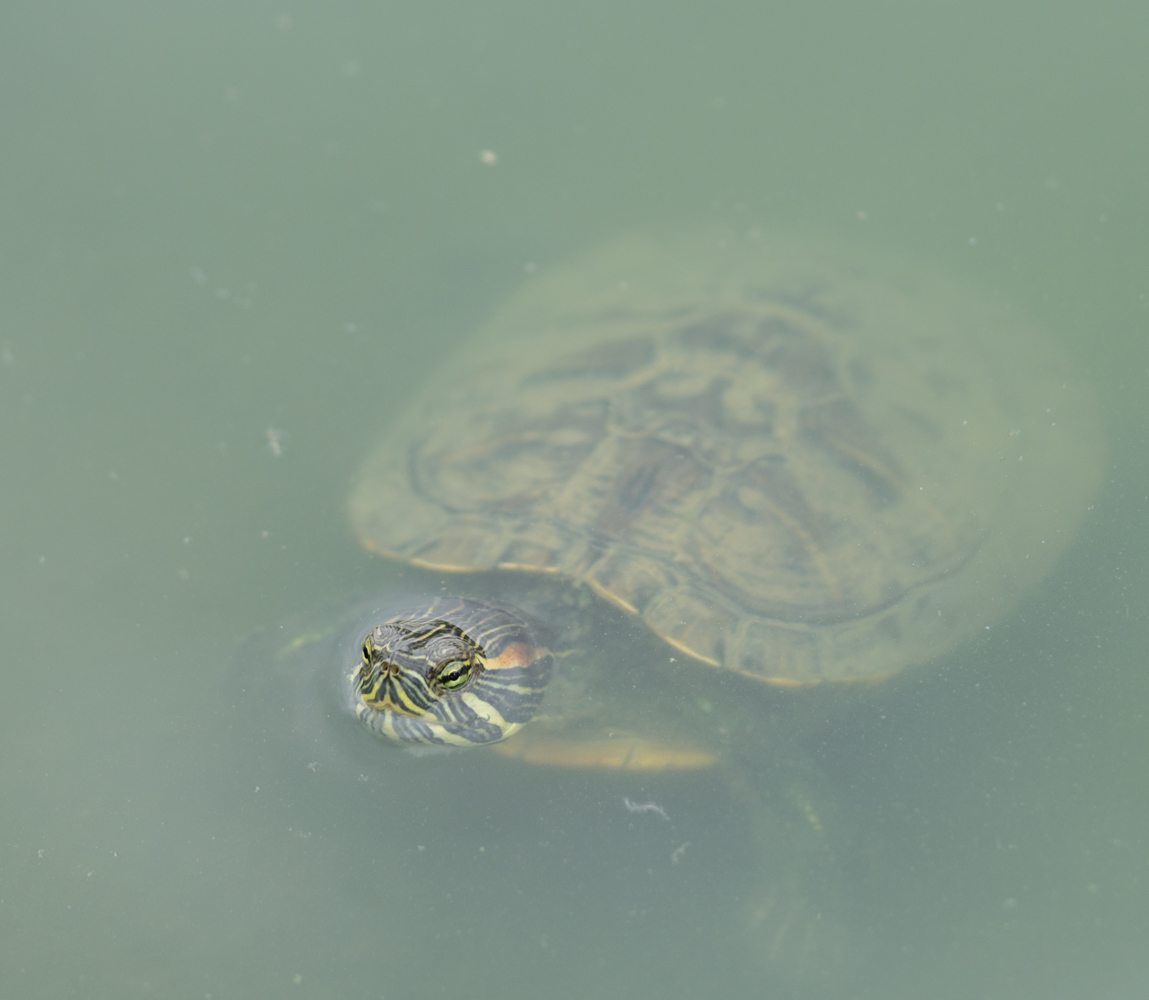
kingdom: Animalia
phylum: Chordata
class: Testudines
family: Emydidae
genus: Trachemys
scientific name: Trachemys scripta
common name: Slider
